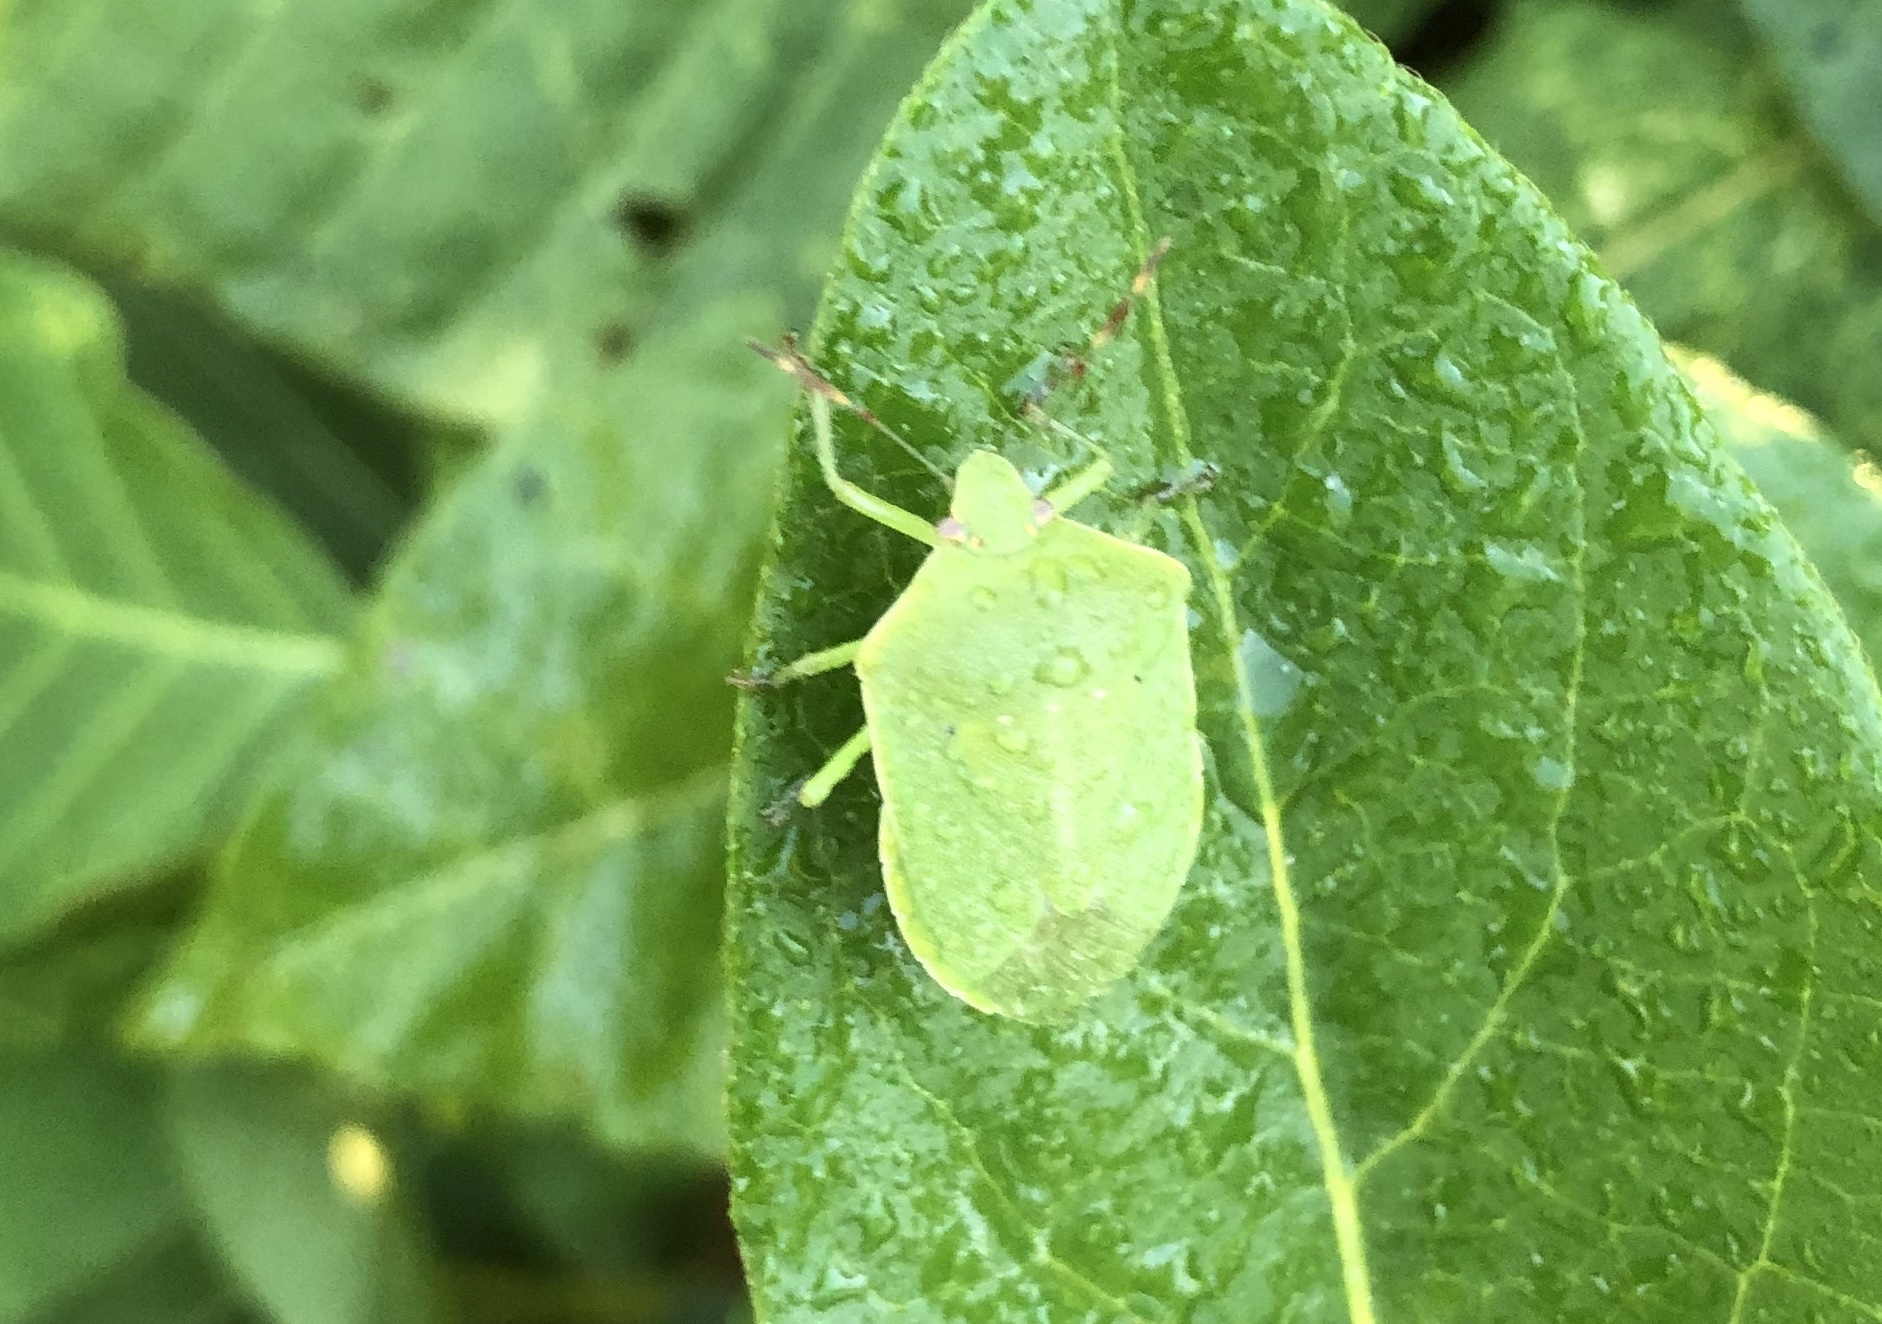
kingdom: Animalia
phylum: Arthropoda
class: Insecta
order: Hemiptera
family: Pentatomidae
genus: Nezara
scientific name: Nezara viridula
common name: Southern green stink bug
